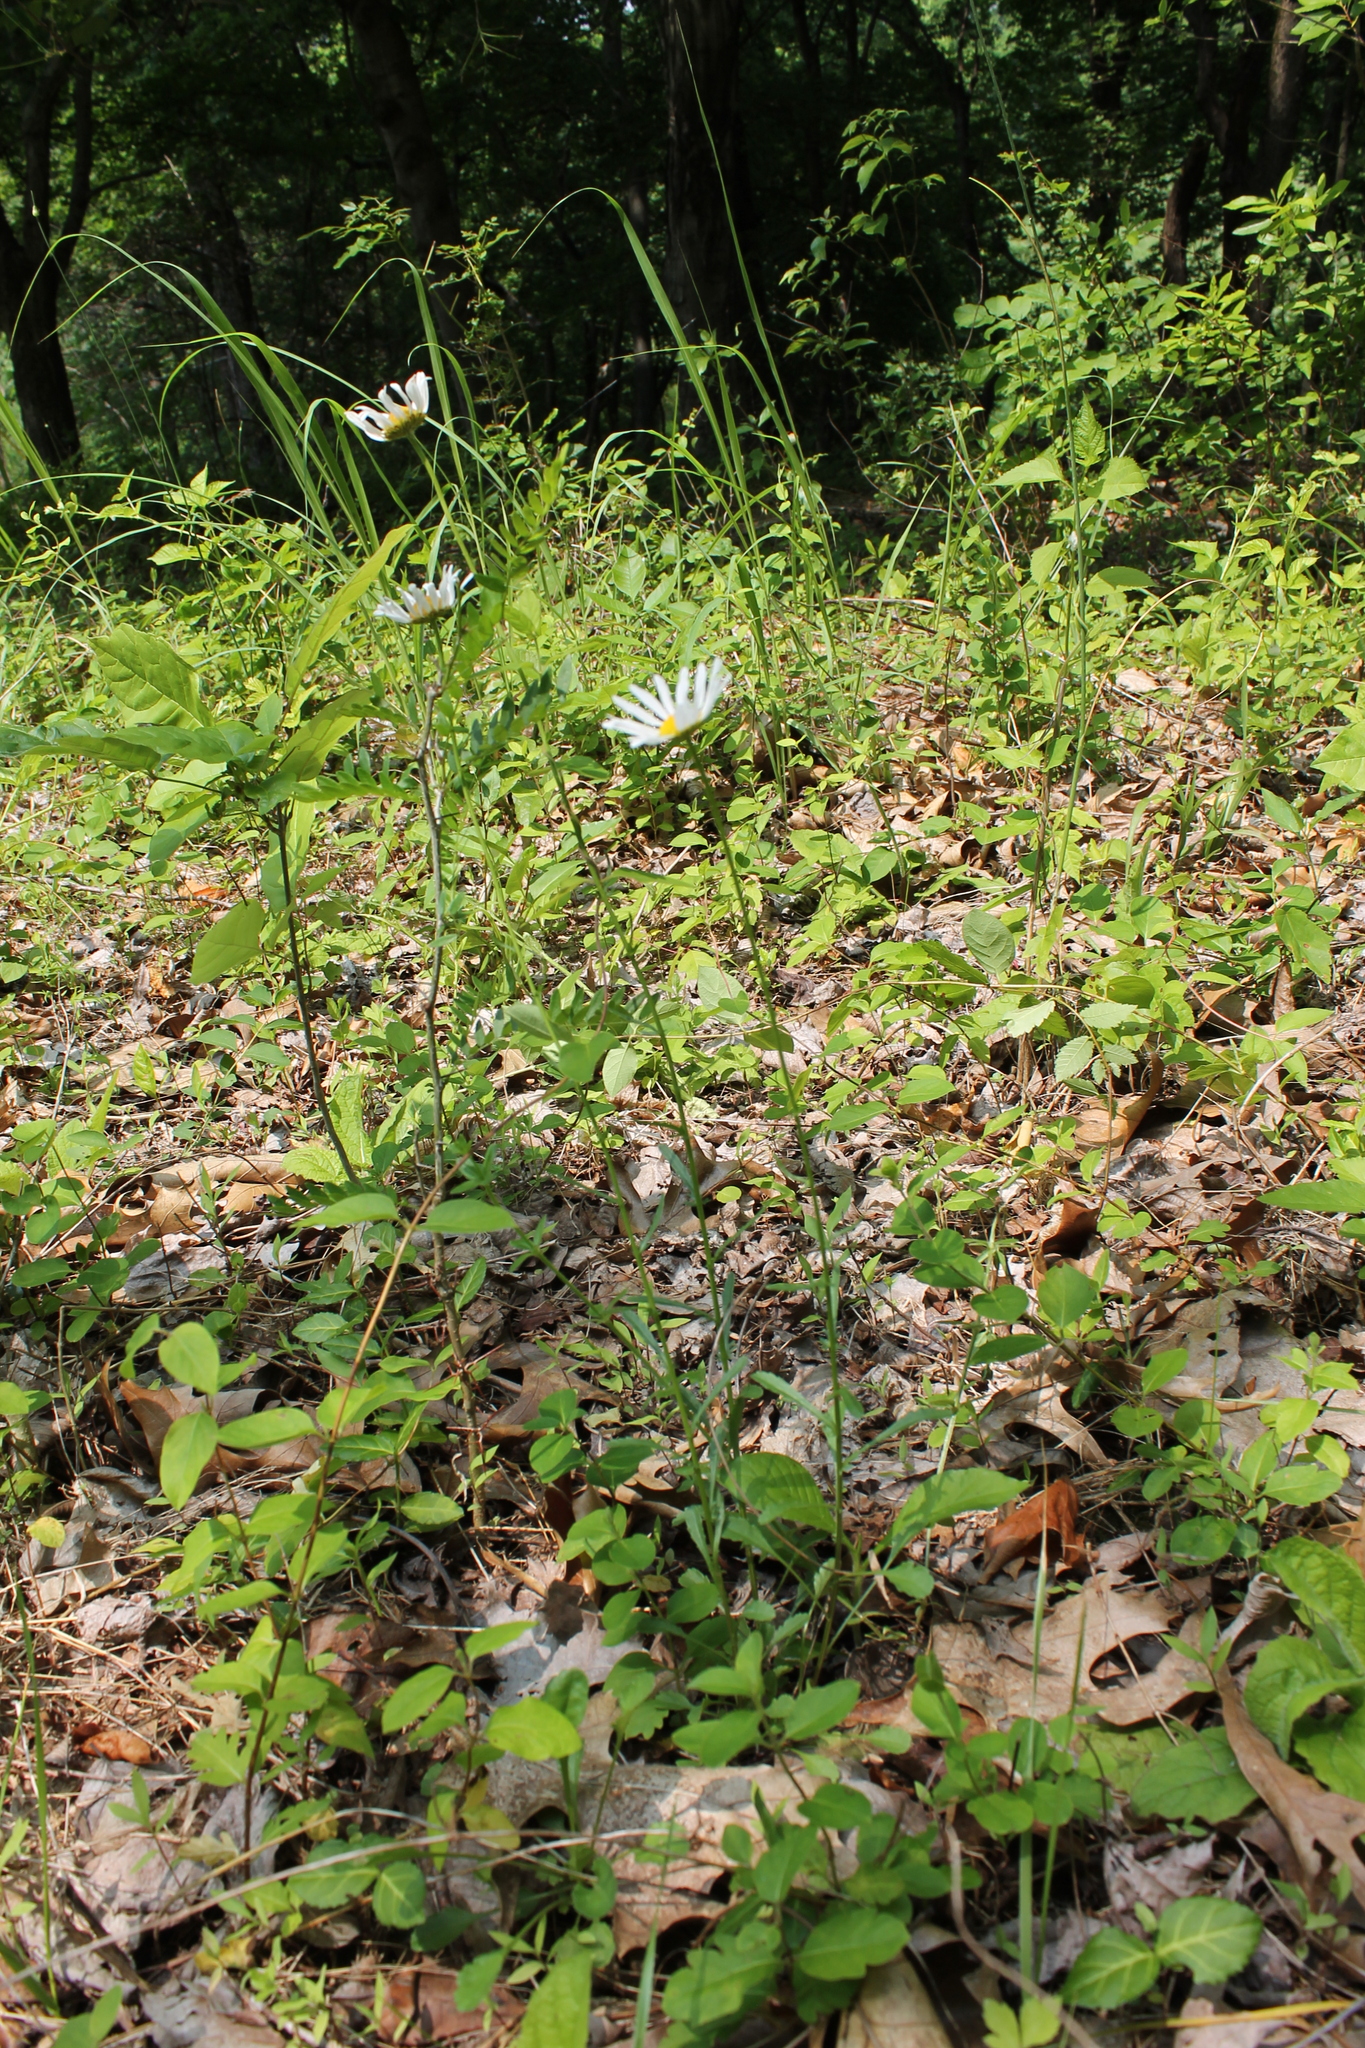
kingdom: Plantae
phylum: Tracheophyta
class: Magnoliopsida
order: Asterales
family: Asteraceae
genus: Leucanthemum
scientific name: Leucanthemum vulgare
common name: Oxeye daisy
